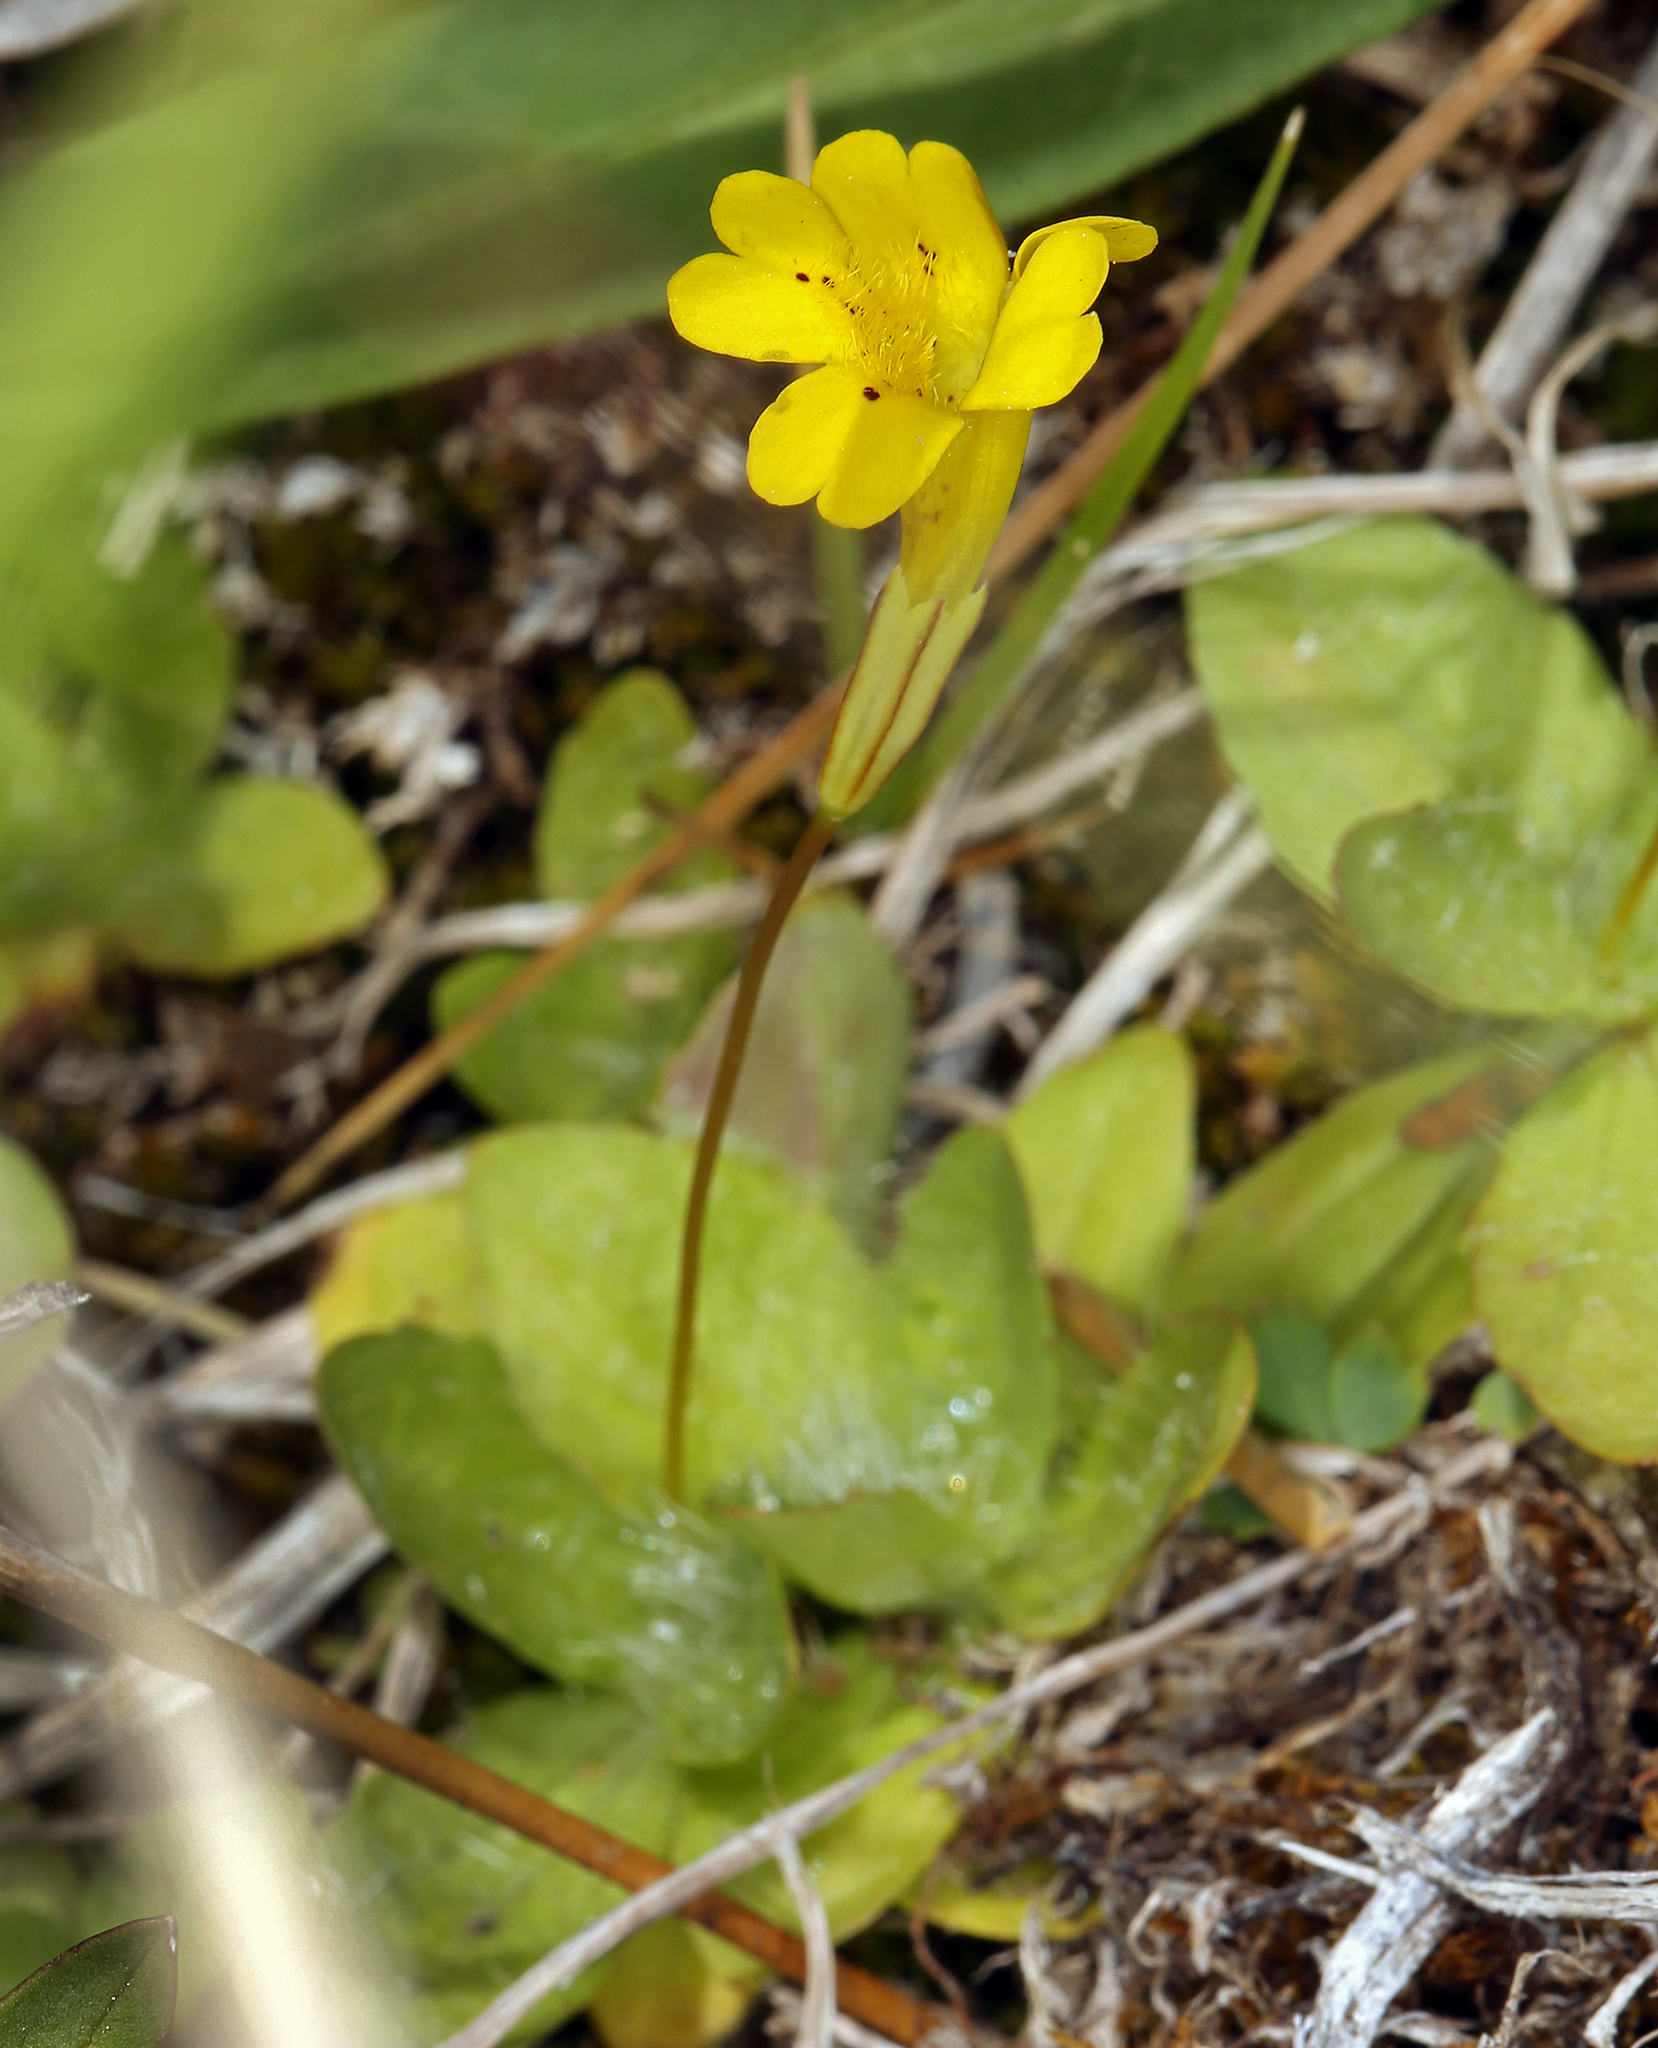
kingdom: Plantae
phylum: Tracheophyta
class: Magnoliopsida
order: Lamiales
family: Phrymaceae
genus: Erythranthe
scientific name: Erythranthe primuloides
